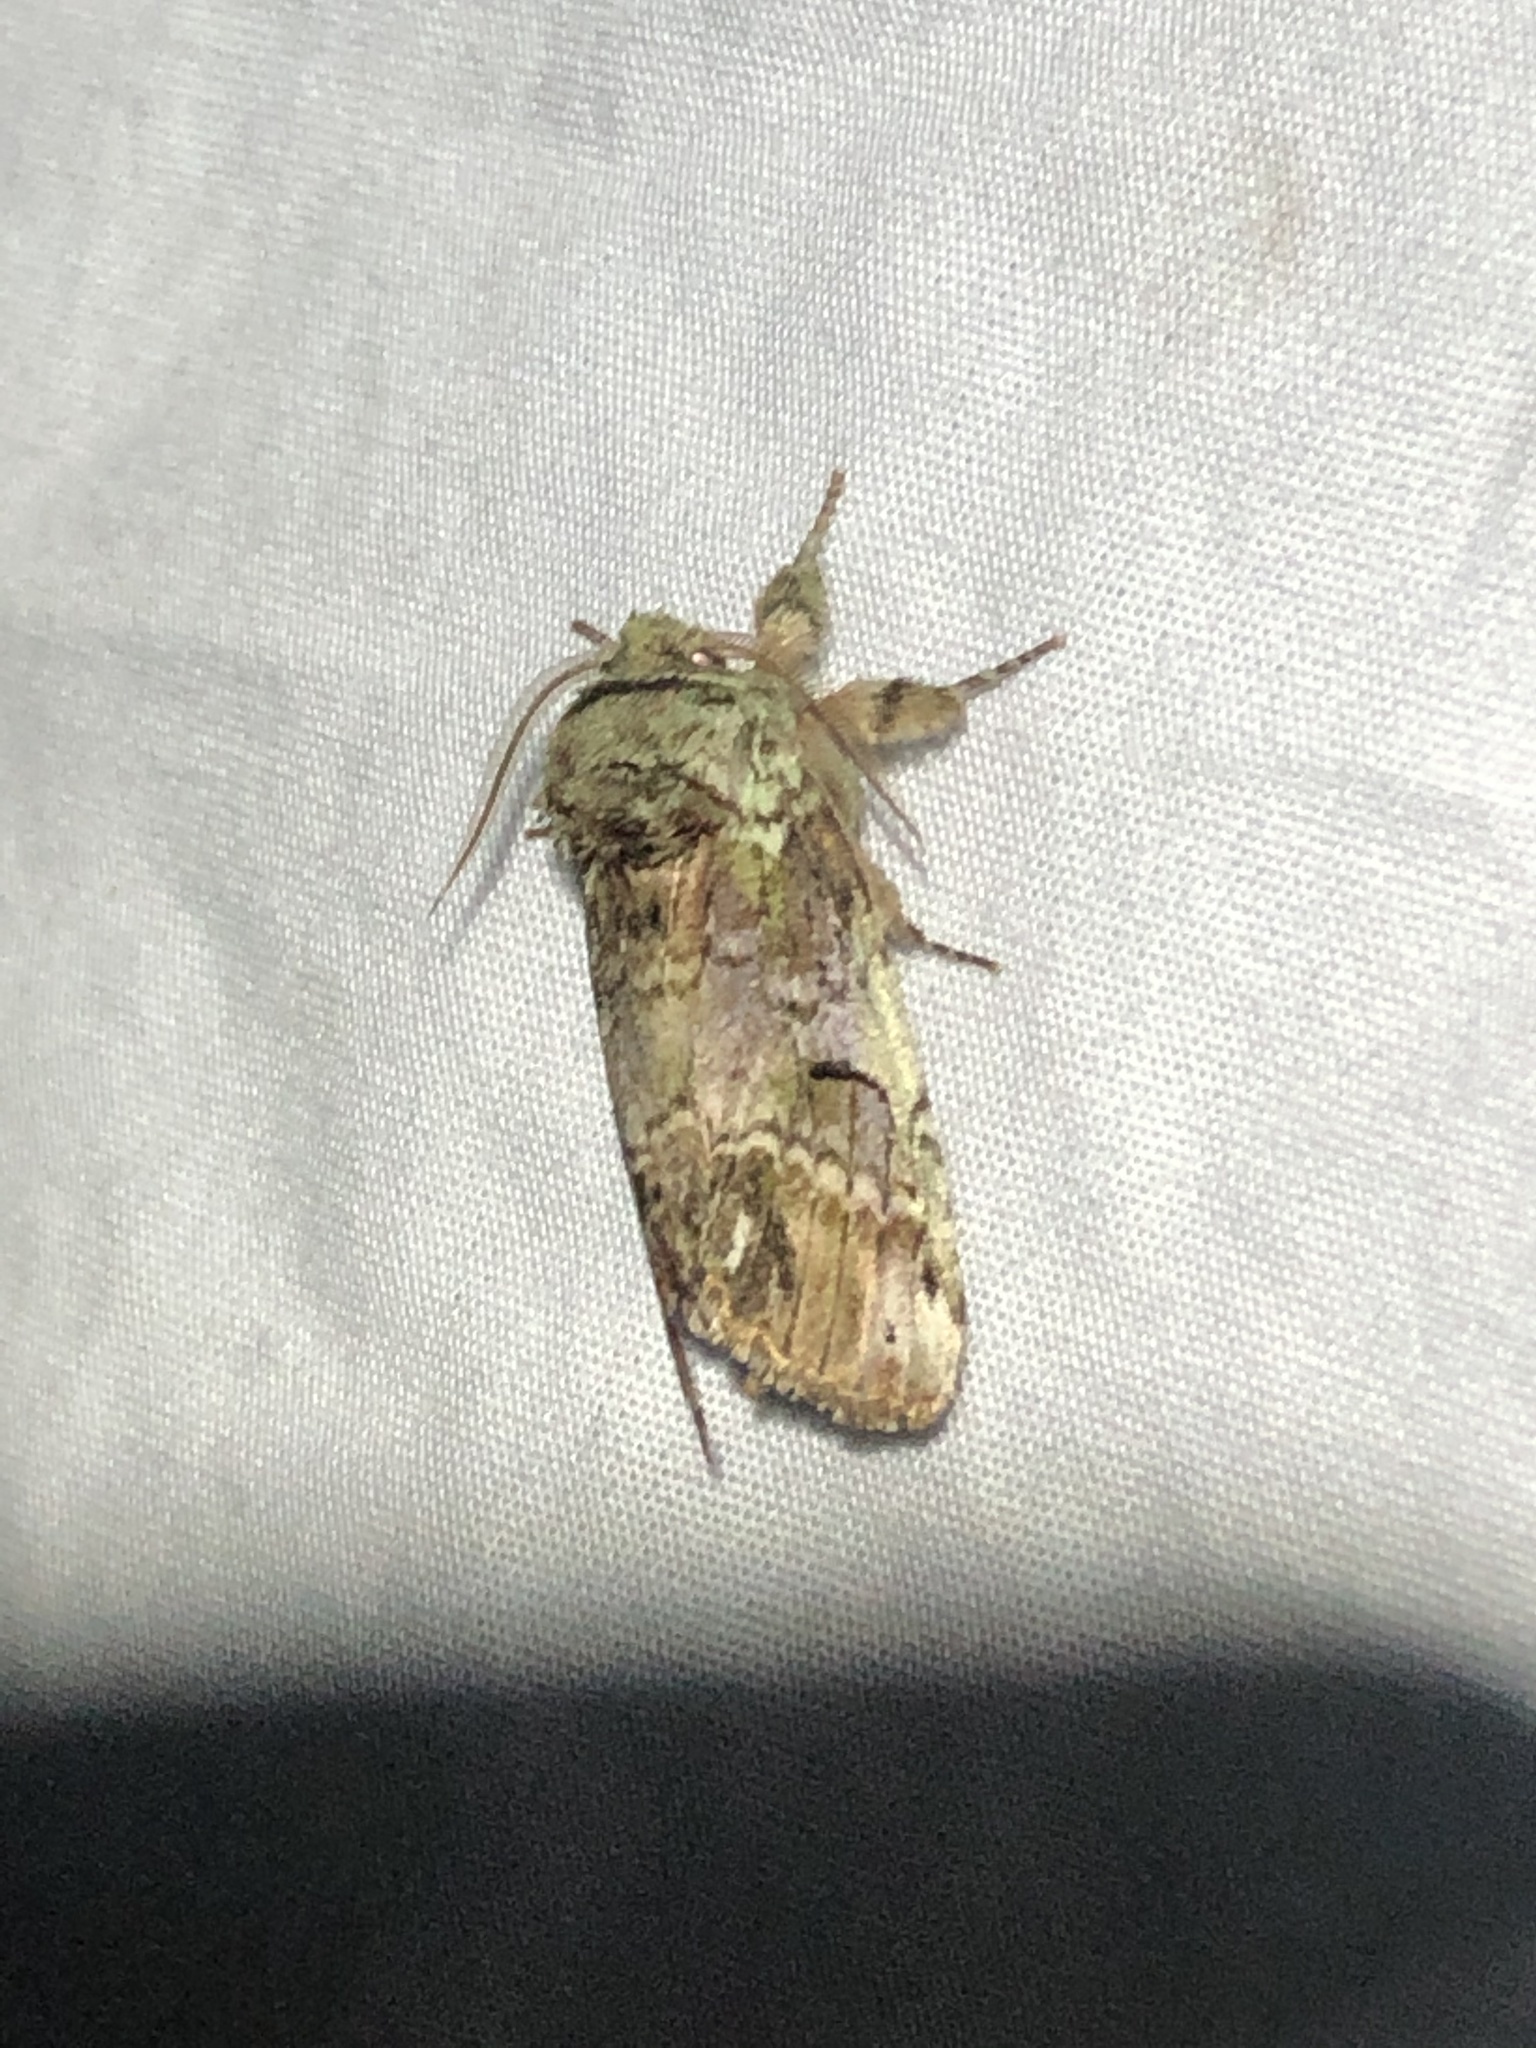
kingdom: Animalia
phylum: Arthropoda
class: Insecta
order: Lepidoptera
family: Notodontidae
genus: Schizura
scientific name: Schizura
